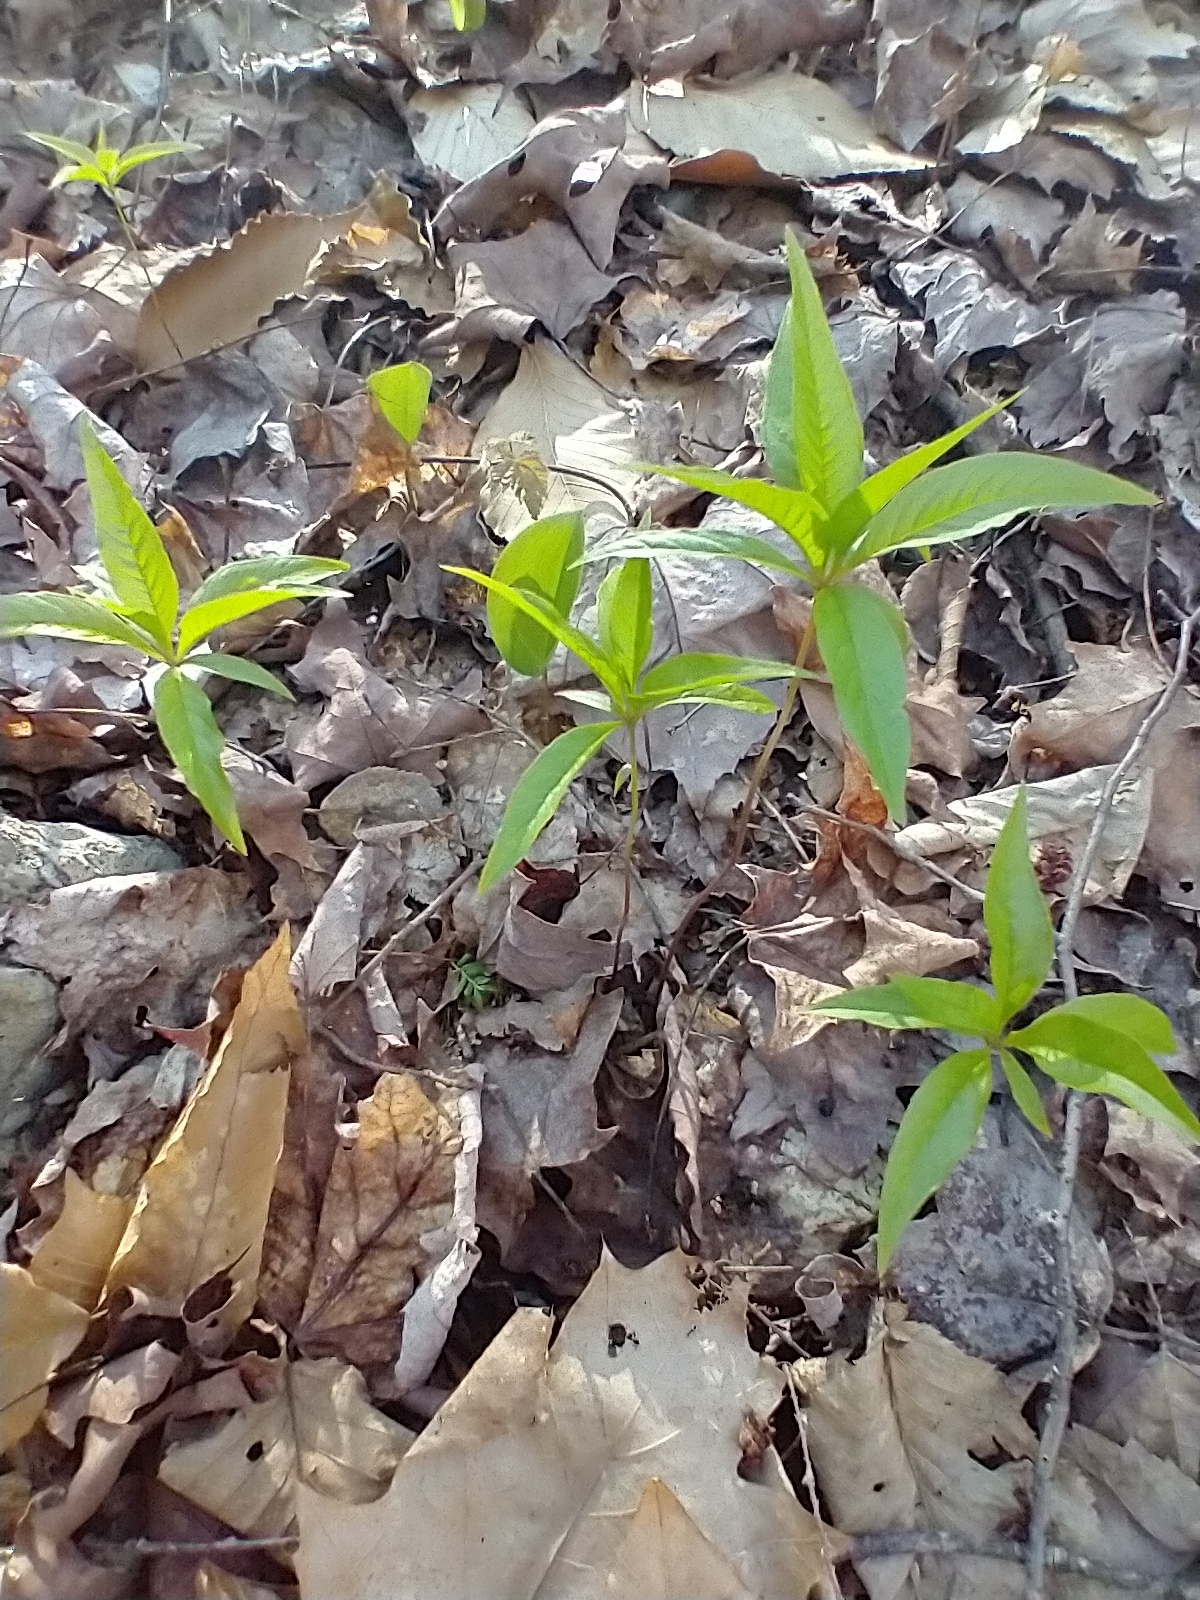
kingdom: Plantae
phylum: Tracheophyta
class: Magnoliopsida
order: Ericales
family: Primulaceae
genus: Lysimachia
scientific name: Lysimachia borealis
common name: American starflower
